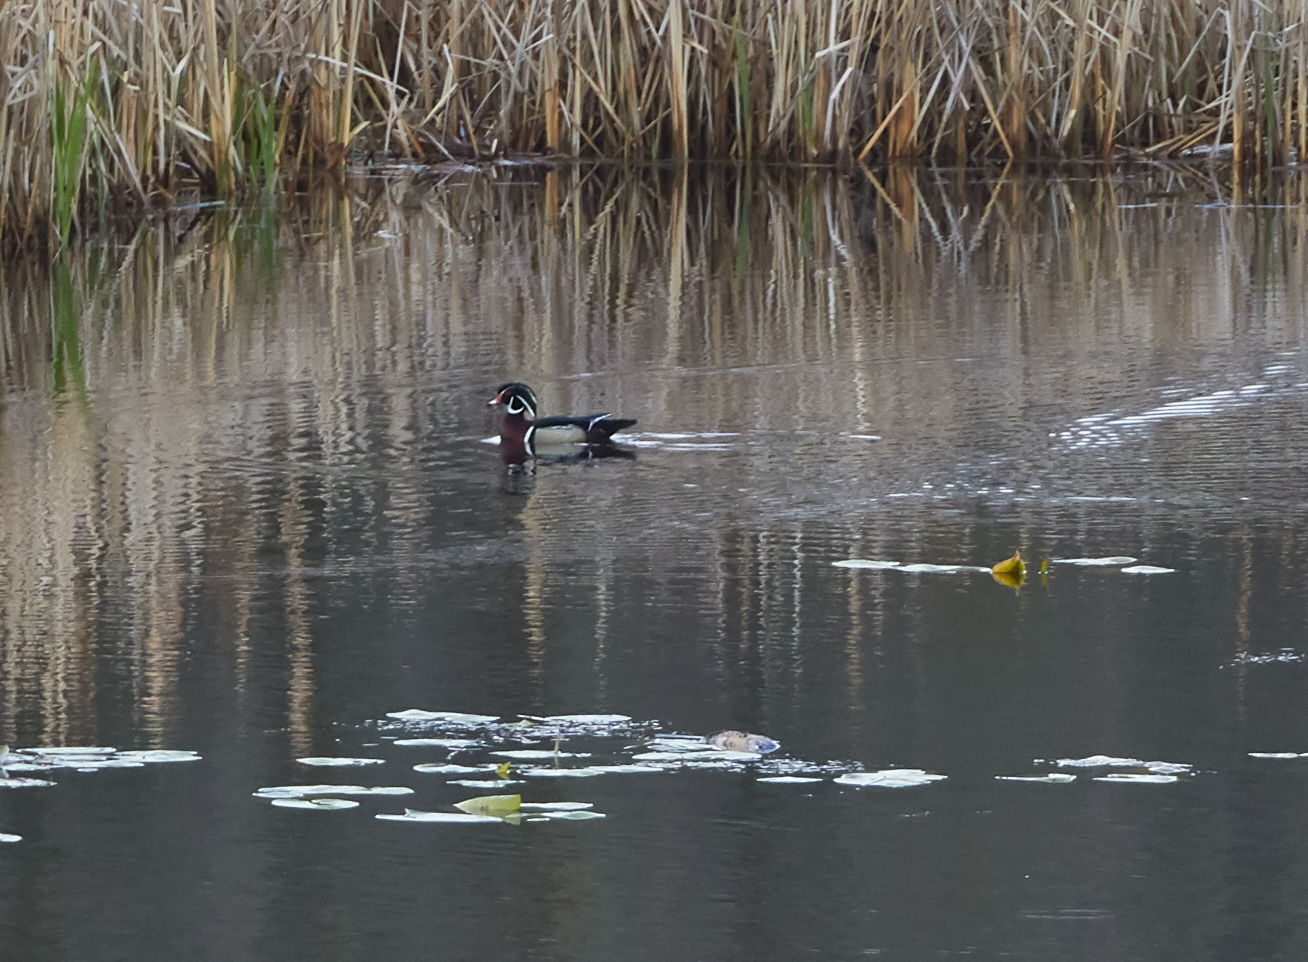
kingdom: Animalia
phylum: Chordata
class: Aves
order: Anseriformes
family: Anatidae
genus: Aix
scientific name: Aix sponsa
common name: Wood duck
